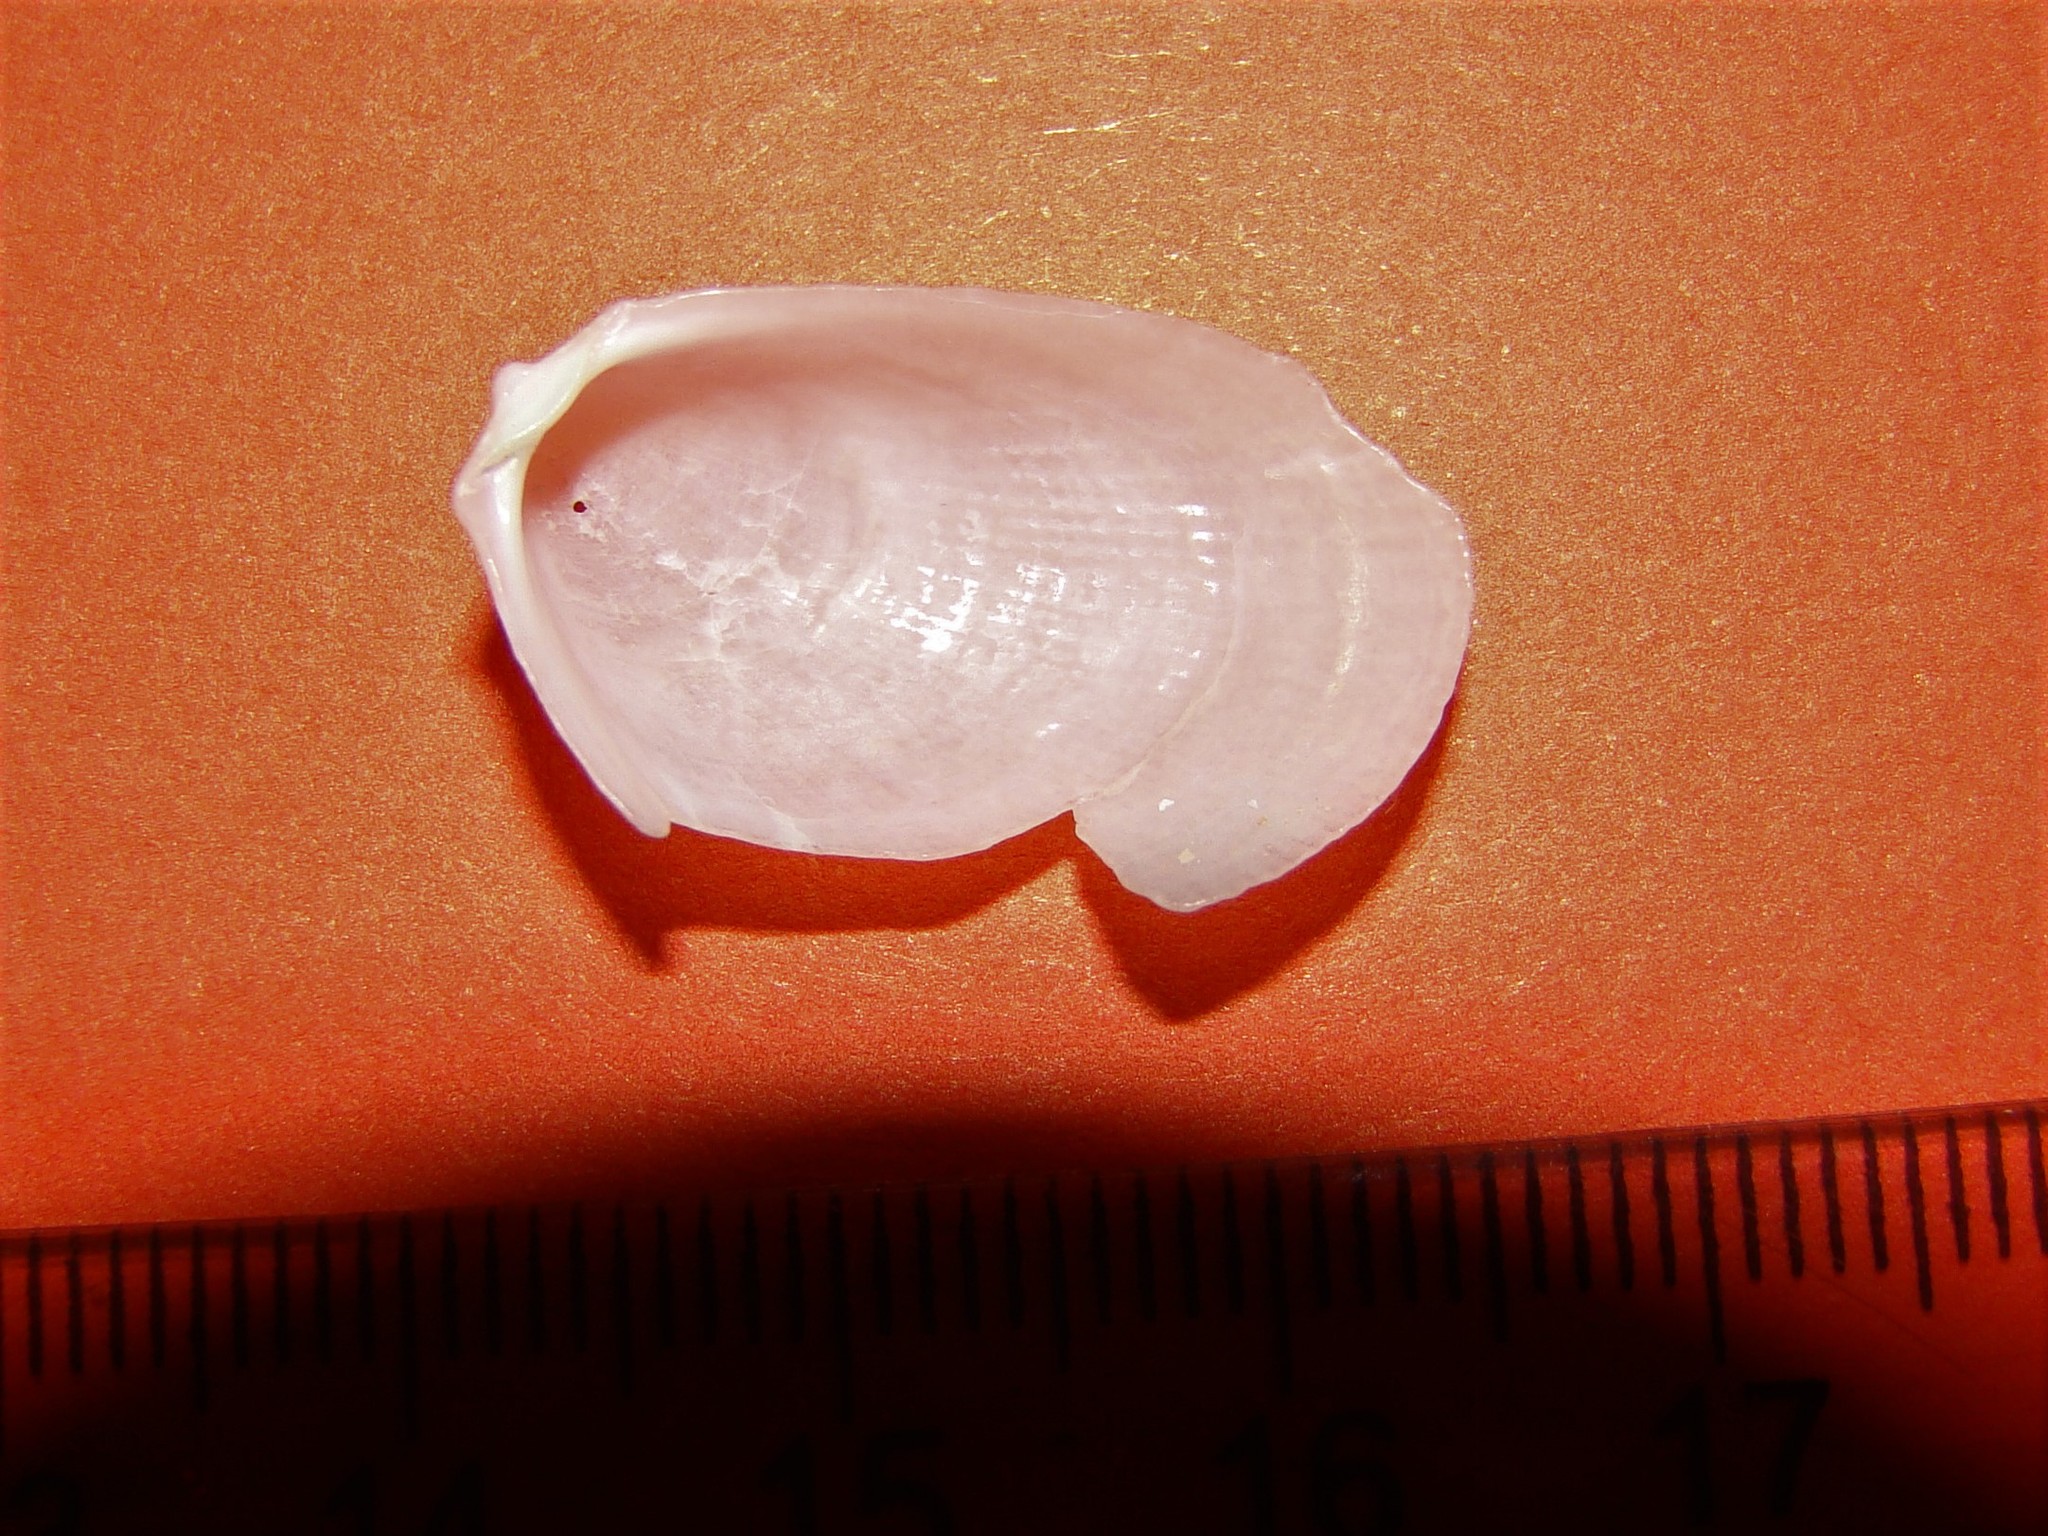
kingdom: Animalia
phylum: Mollusca
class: Bivalvia
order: Limida
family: Limidae
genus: Limaria
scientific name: Limaria orientalis
